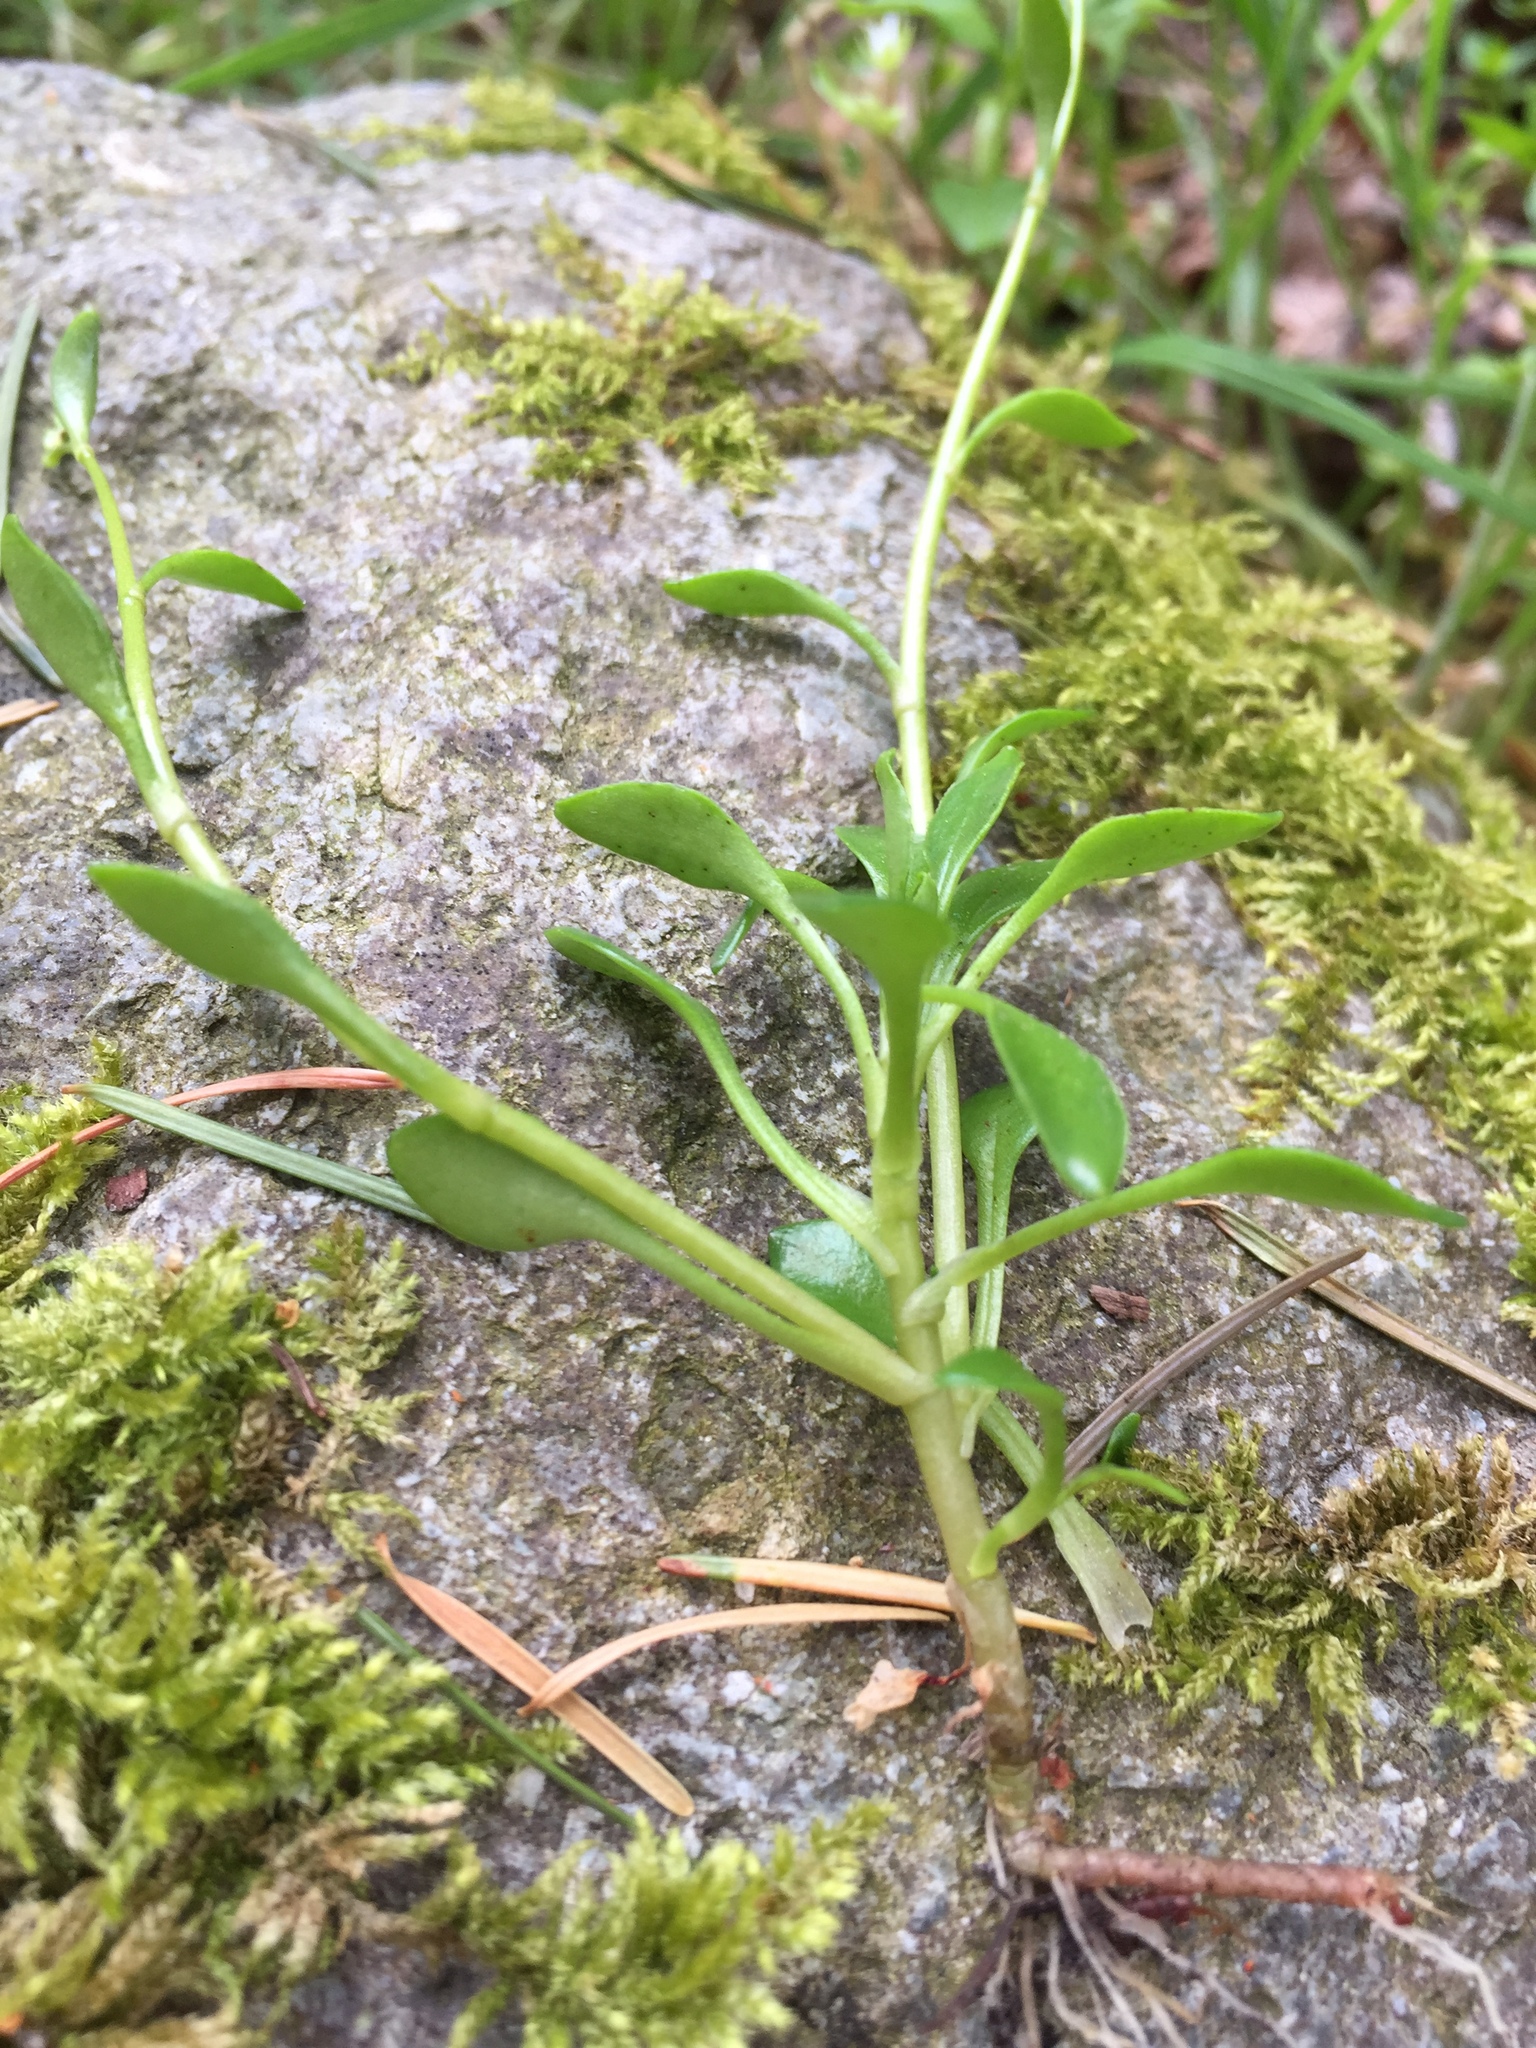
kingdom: Plantae
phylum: Tracheophyta
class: Magnoliopsida
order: Caryophyllales
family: Montiaceae
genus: Montia
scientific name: Montia parvifolia
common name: Small-leaved blinks
